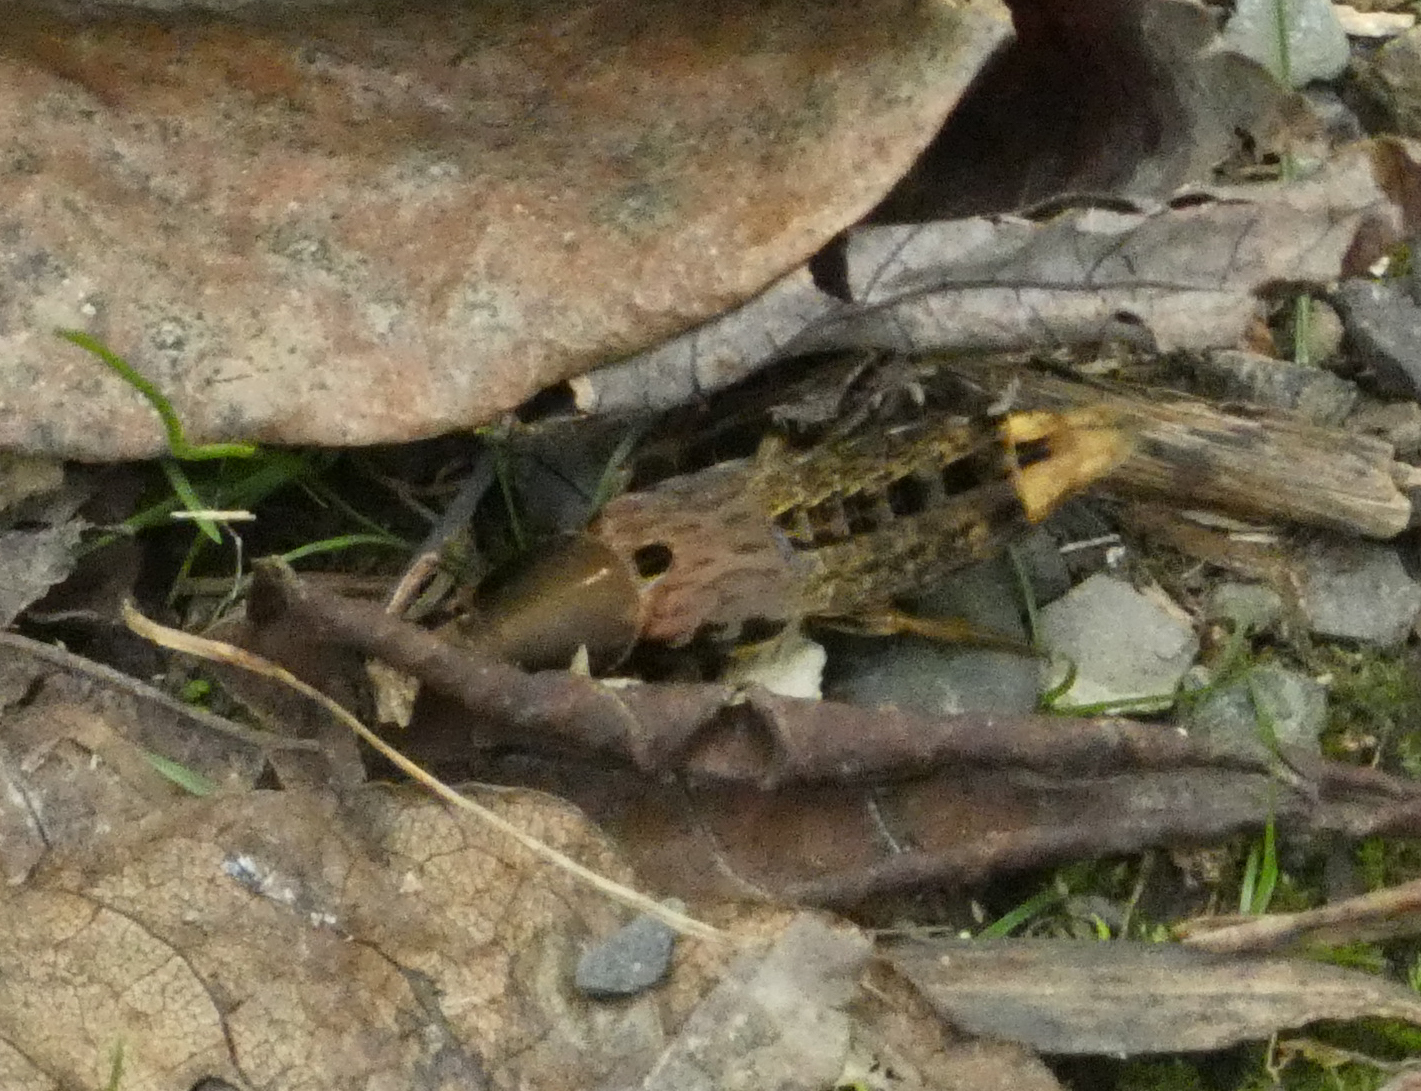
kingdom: Animalia
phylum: Arthropoda
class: Insecta
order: Coleoptera
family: Staphylinidae
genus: Platydracus
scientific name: Platydracus maculosus
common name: Brown rove beetle
